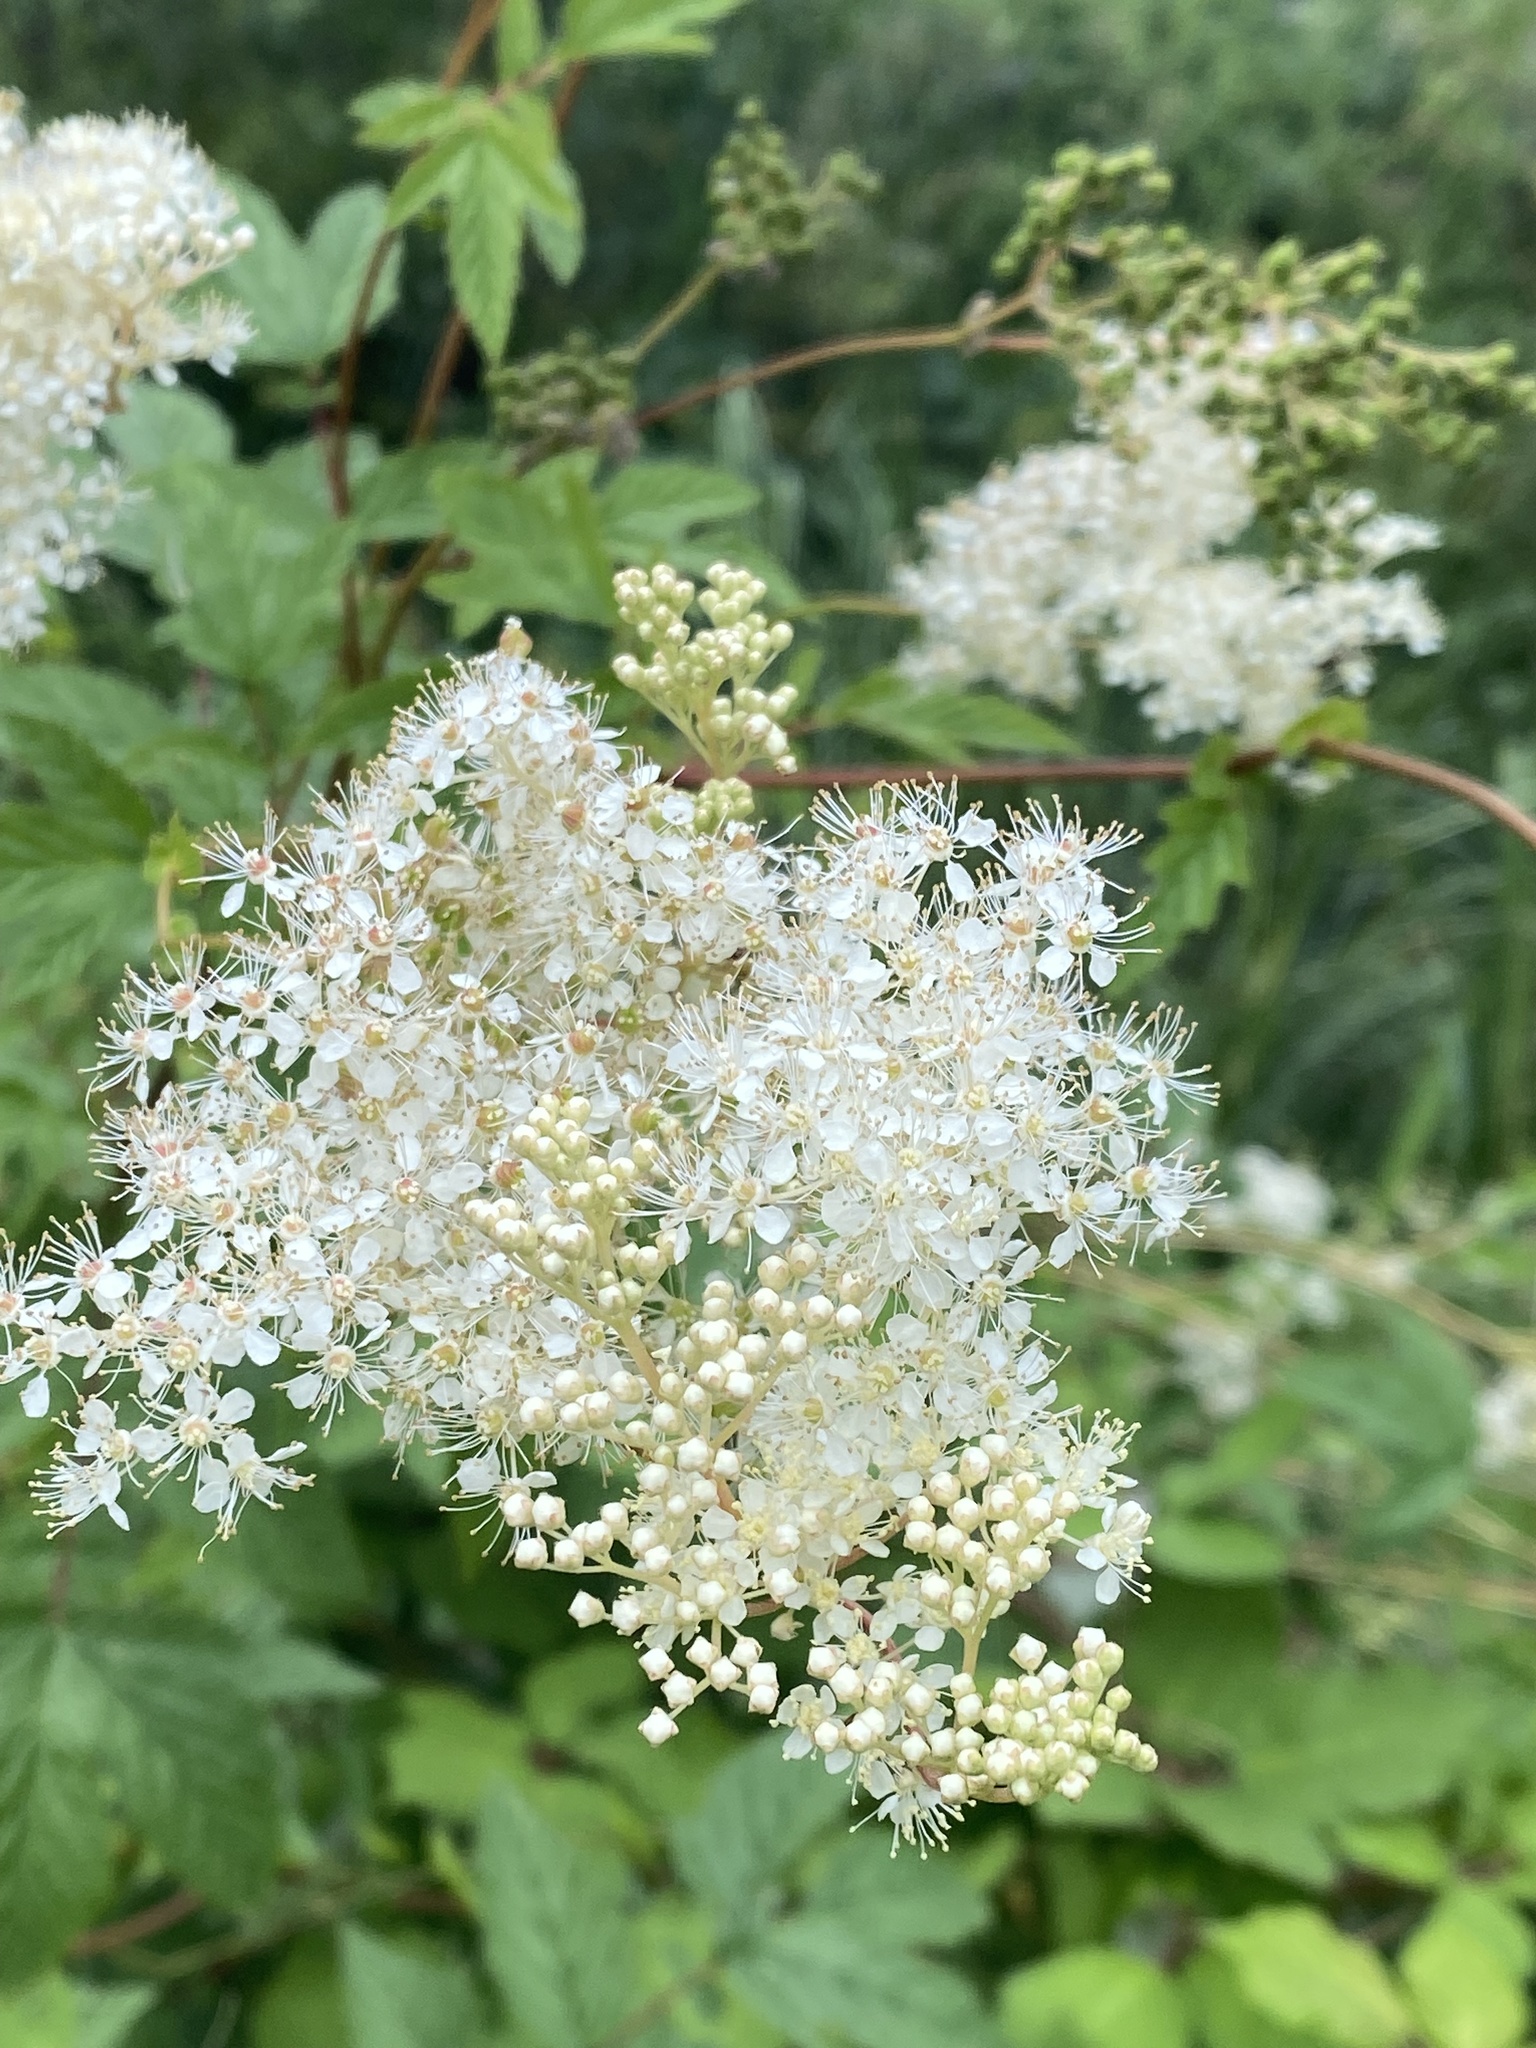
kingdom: Plantae
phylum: Tracheophyta
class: Magnoliopsida
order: Rosales
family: Rosaceae
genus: Filipendula
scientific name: Filipendula ulmaria
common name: Meadowsweet
